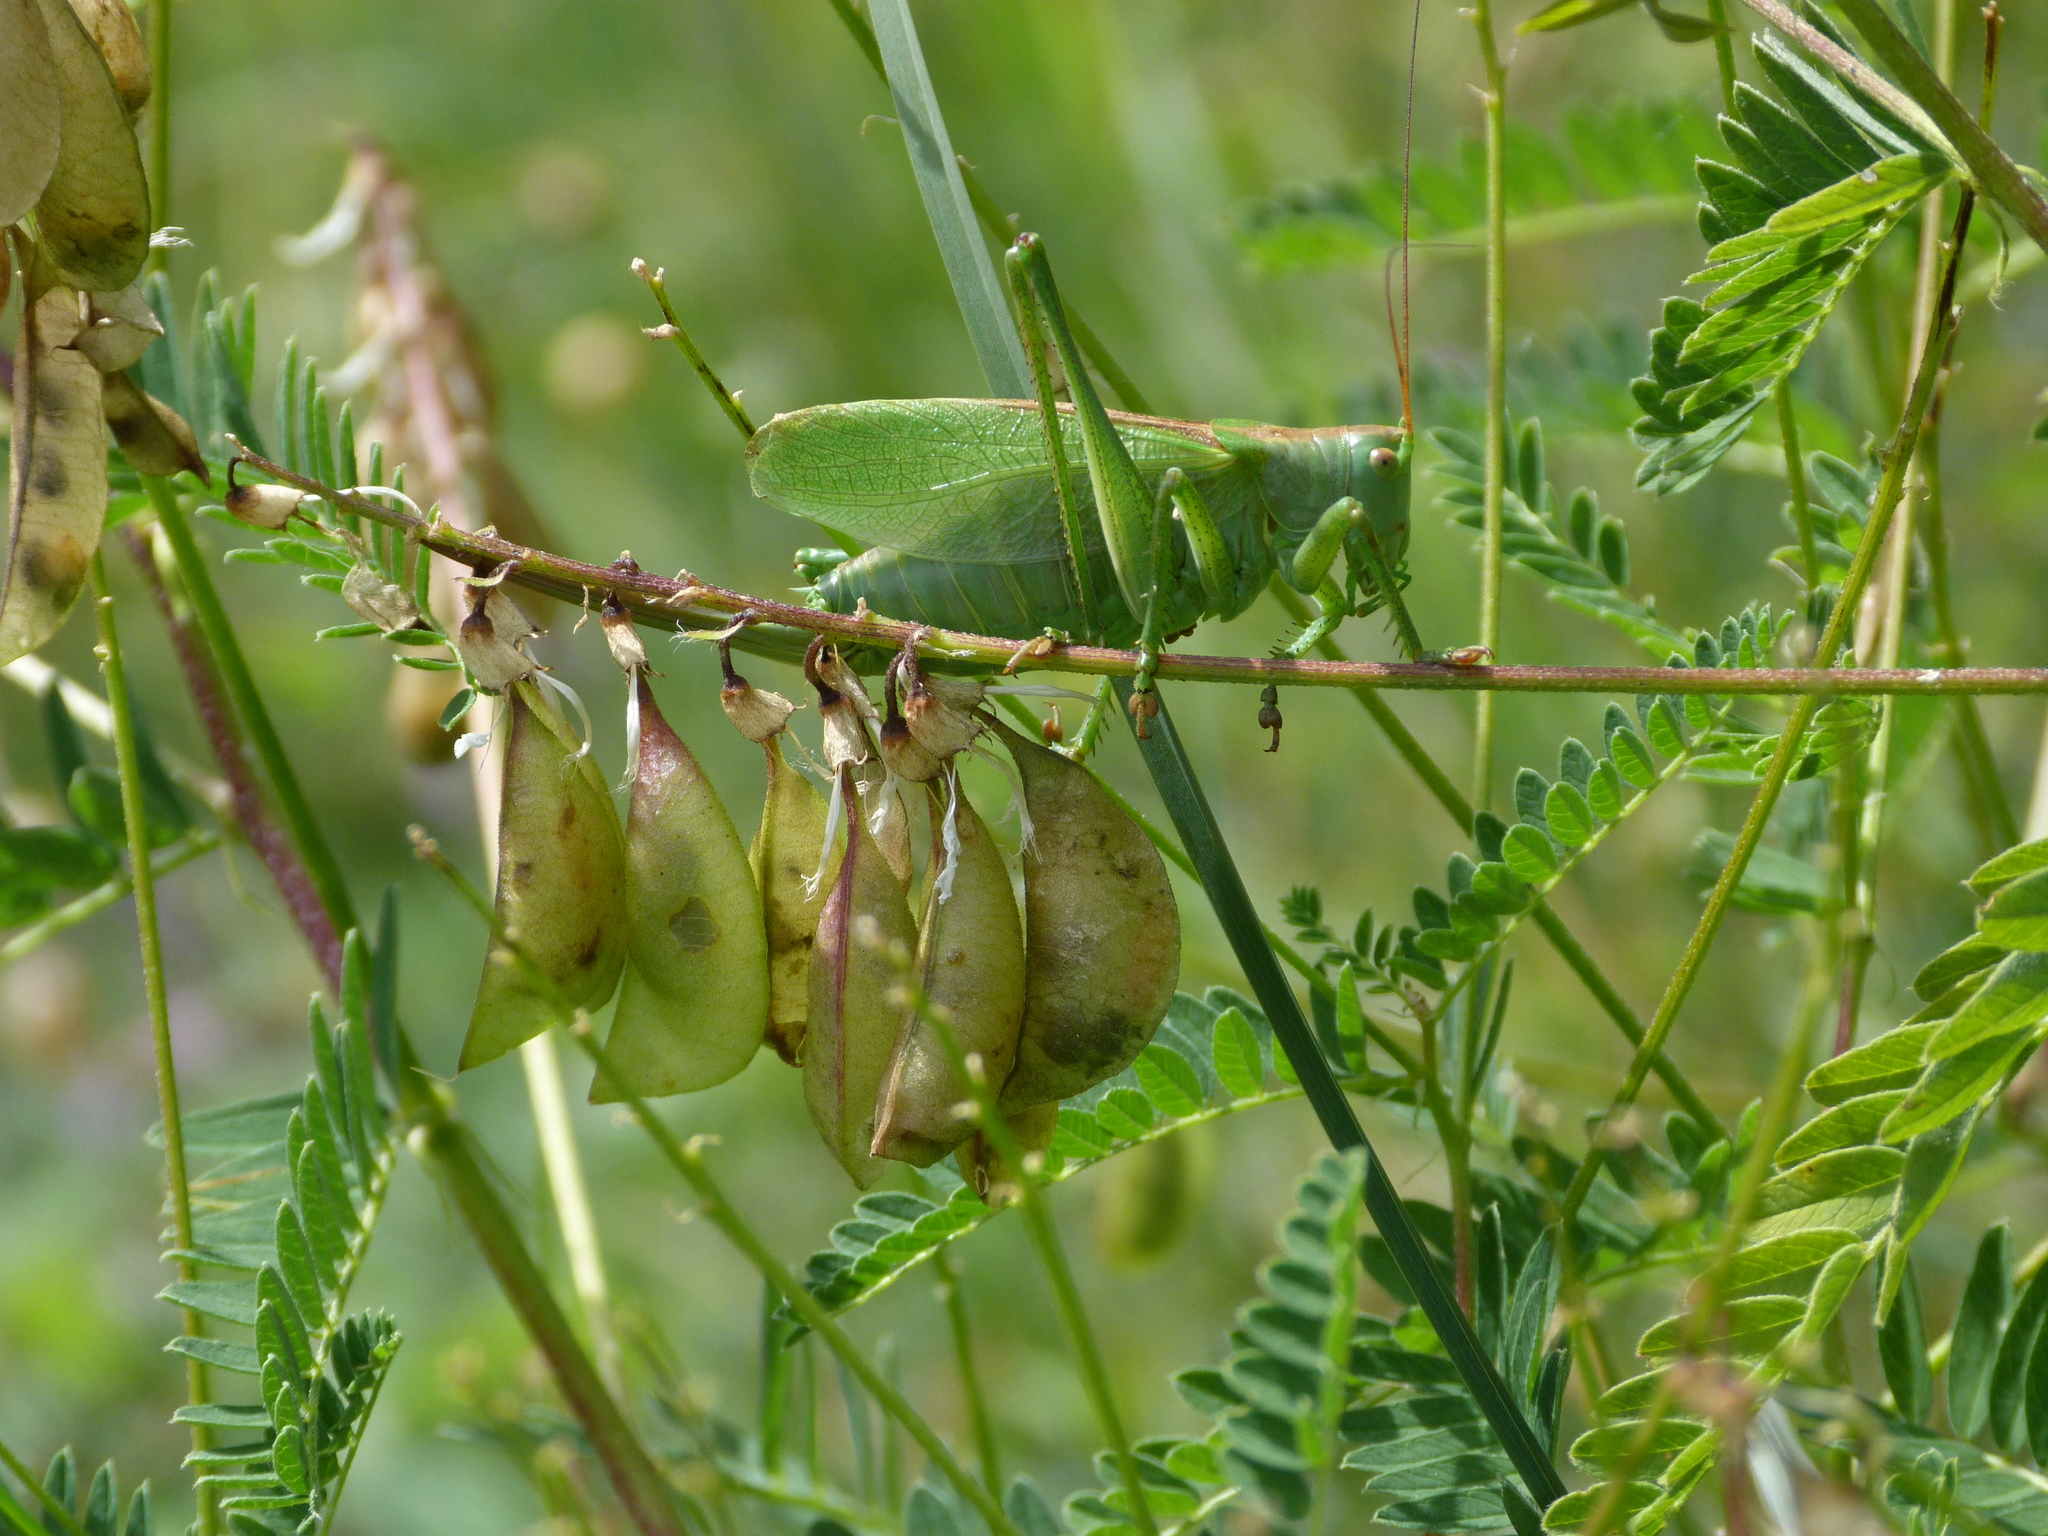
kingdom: Animalia
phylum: Arthropoda
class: Insecta
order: Orthoptera
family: Tettigoniidae
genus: Tettigonia
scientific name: Tettigonia cantans
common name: Upland green bush-cricket
